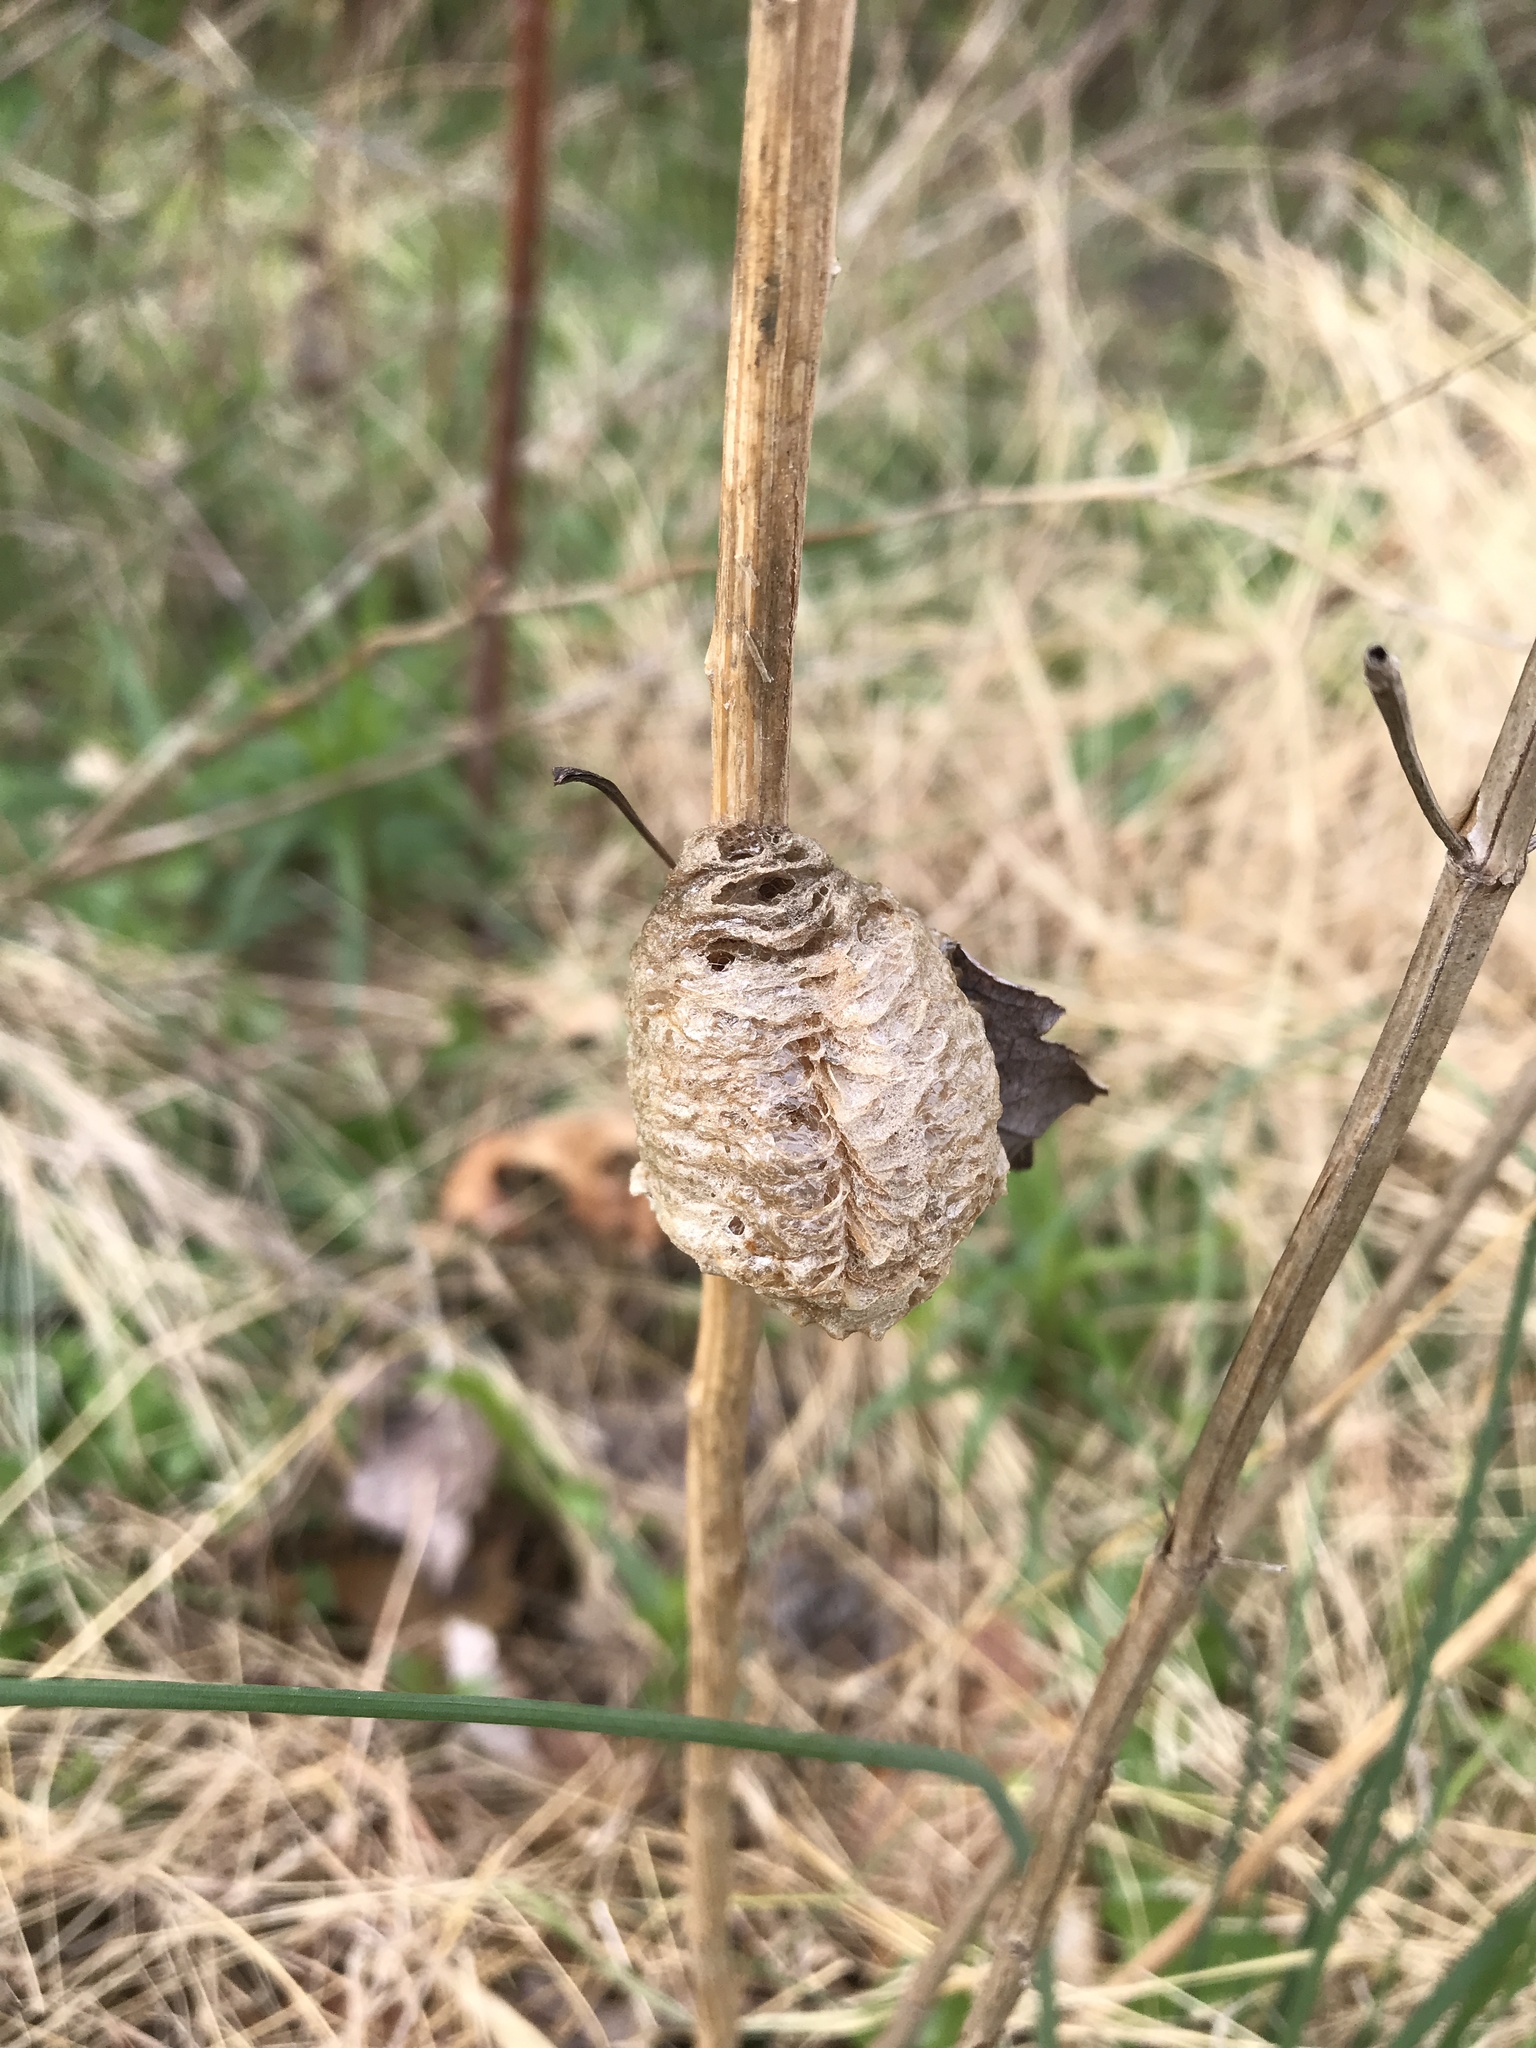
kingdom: Animalia
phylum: Arthropoda
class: Insecta
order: Mantodea
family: Mantidae
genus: Tenodera
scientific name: Tenodera sinensis
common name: Chinese mantis
